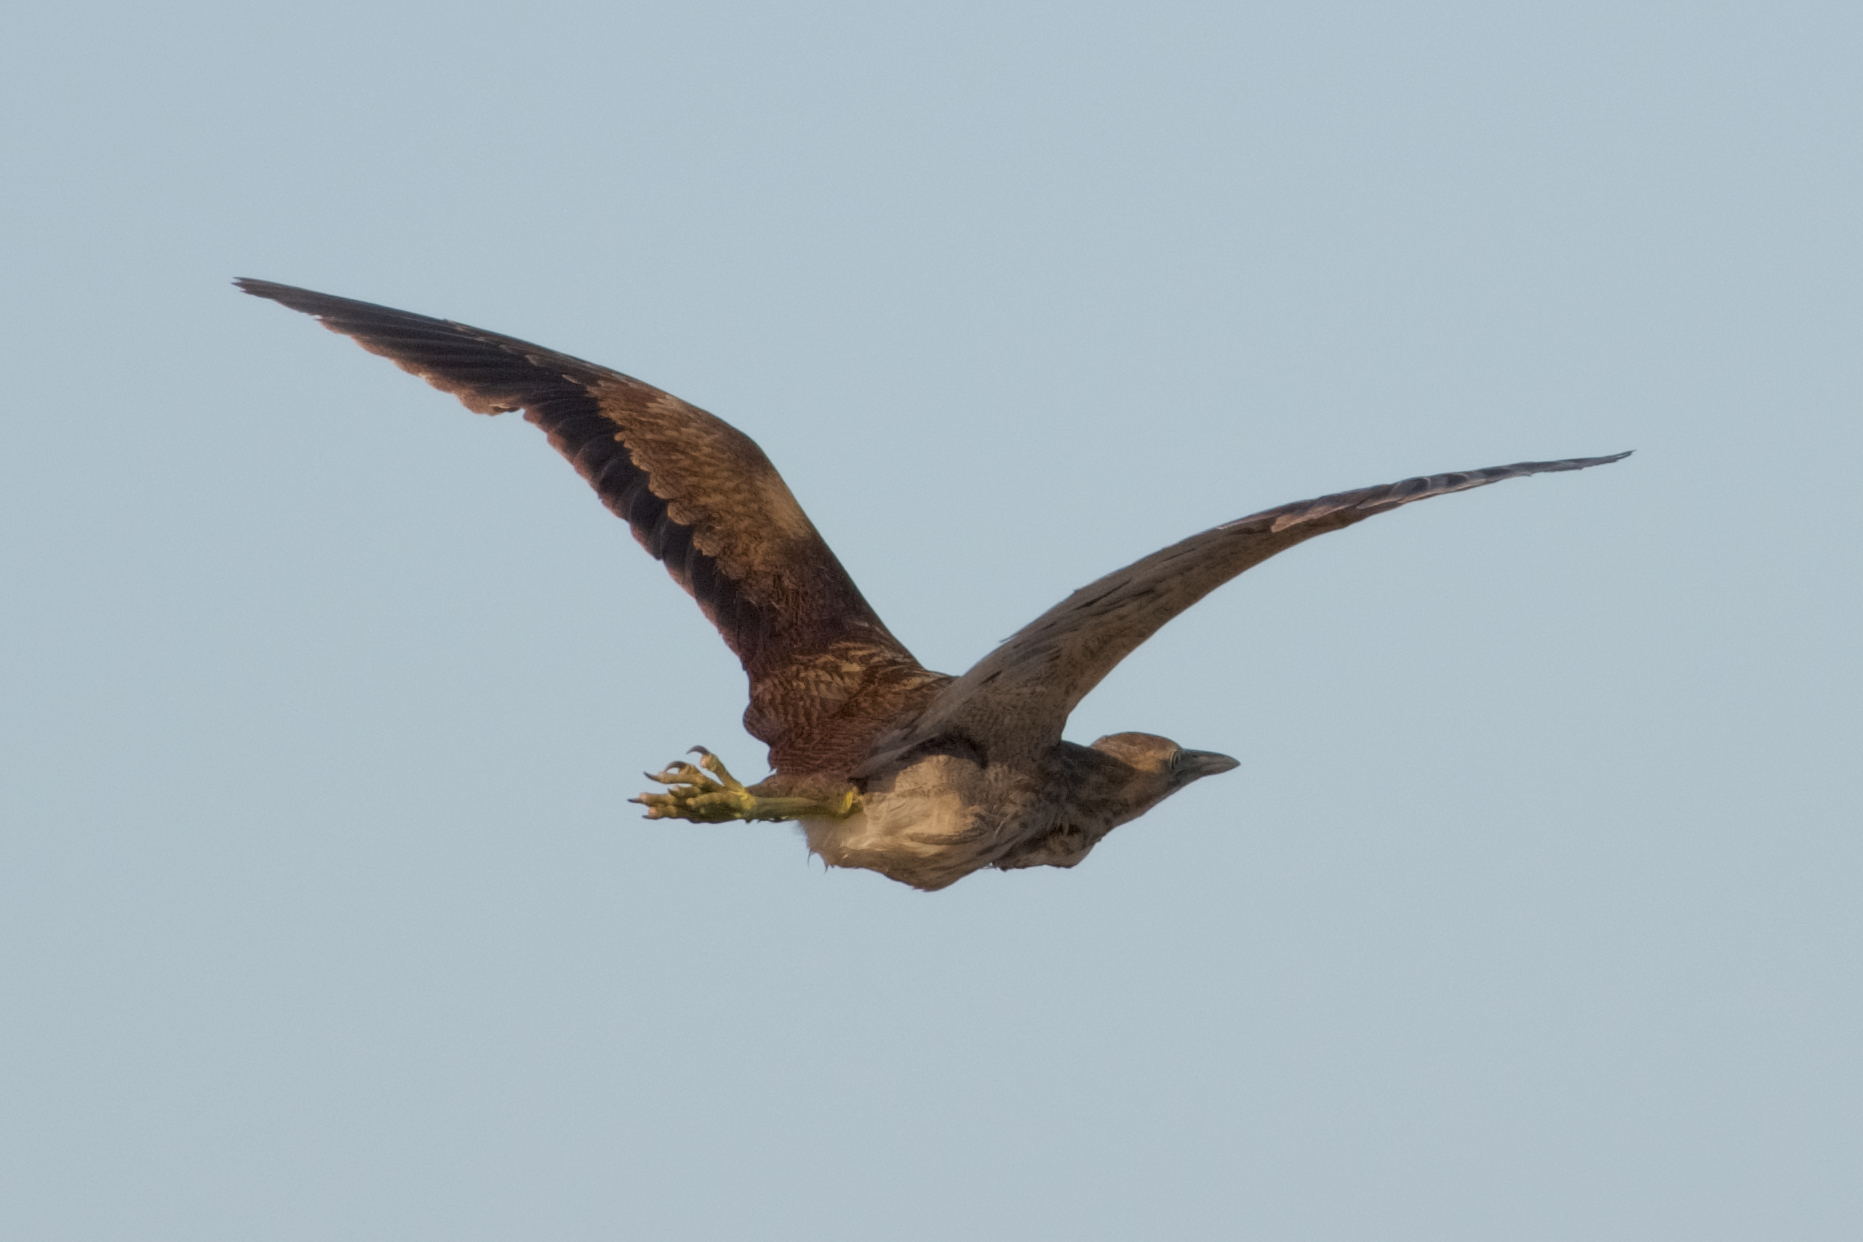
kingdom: Animalia
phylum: Chordata
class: Aves
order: Pelecaniformes
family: Ardeidae
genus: Botaurus
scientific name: Botaurus lentiginosus
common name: American bittern
